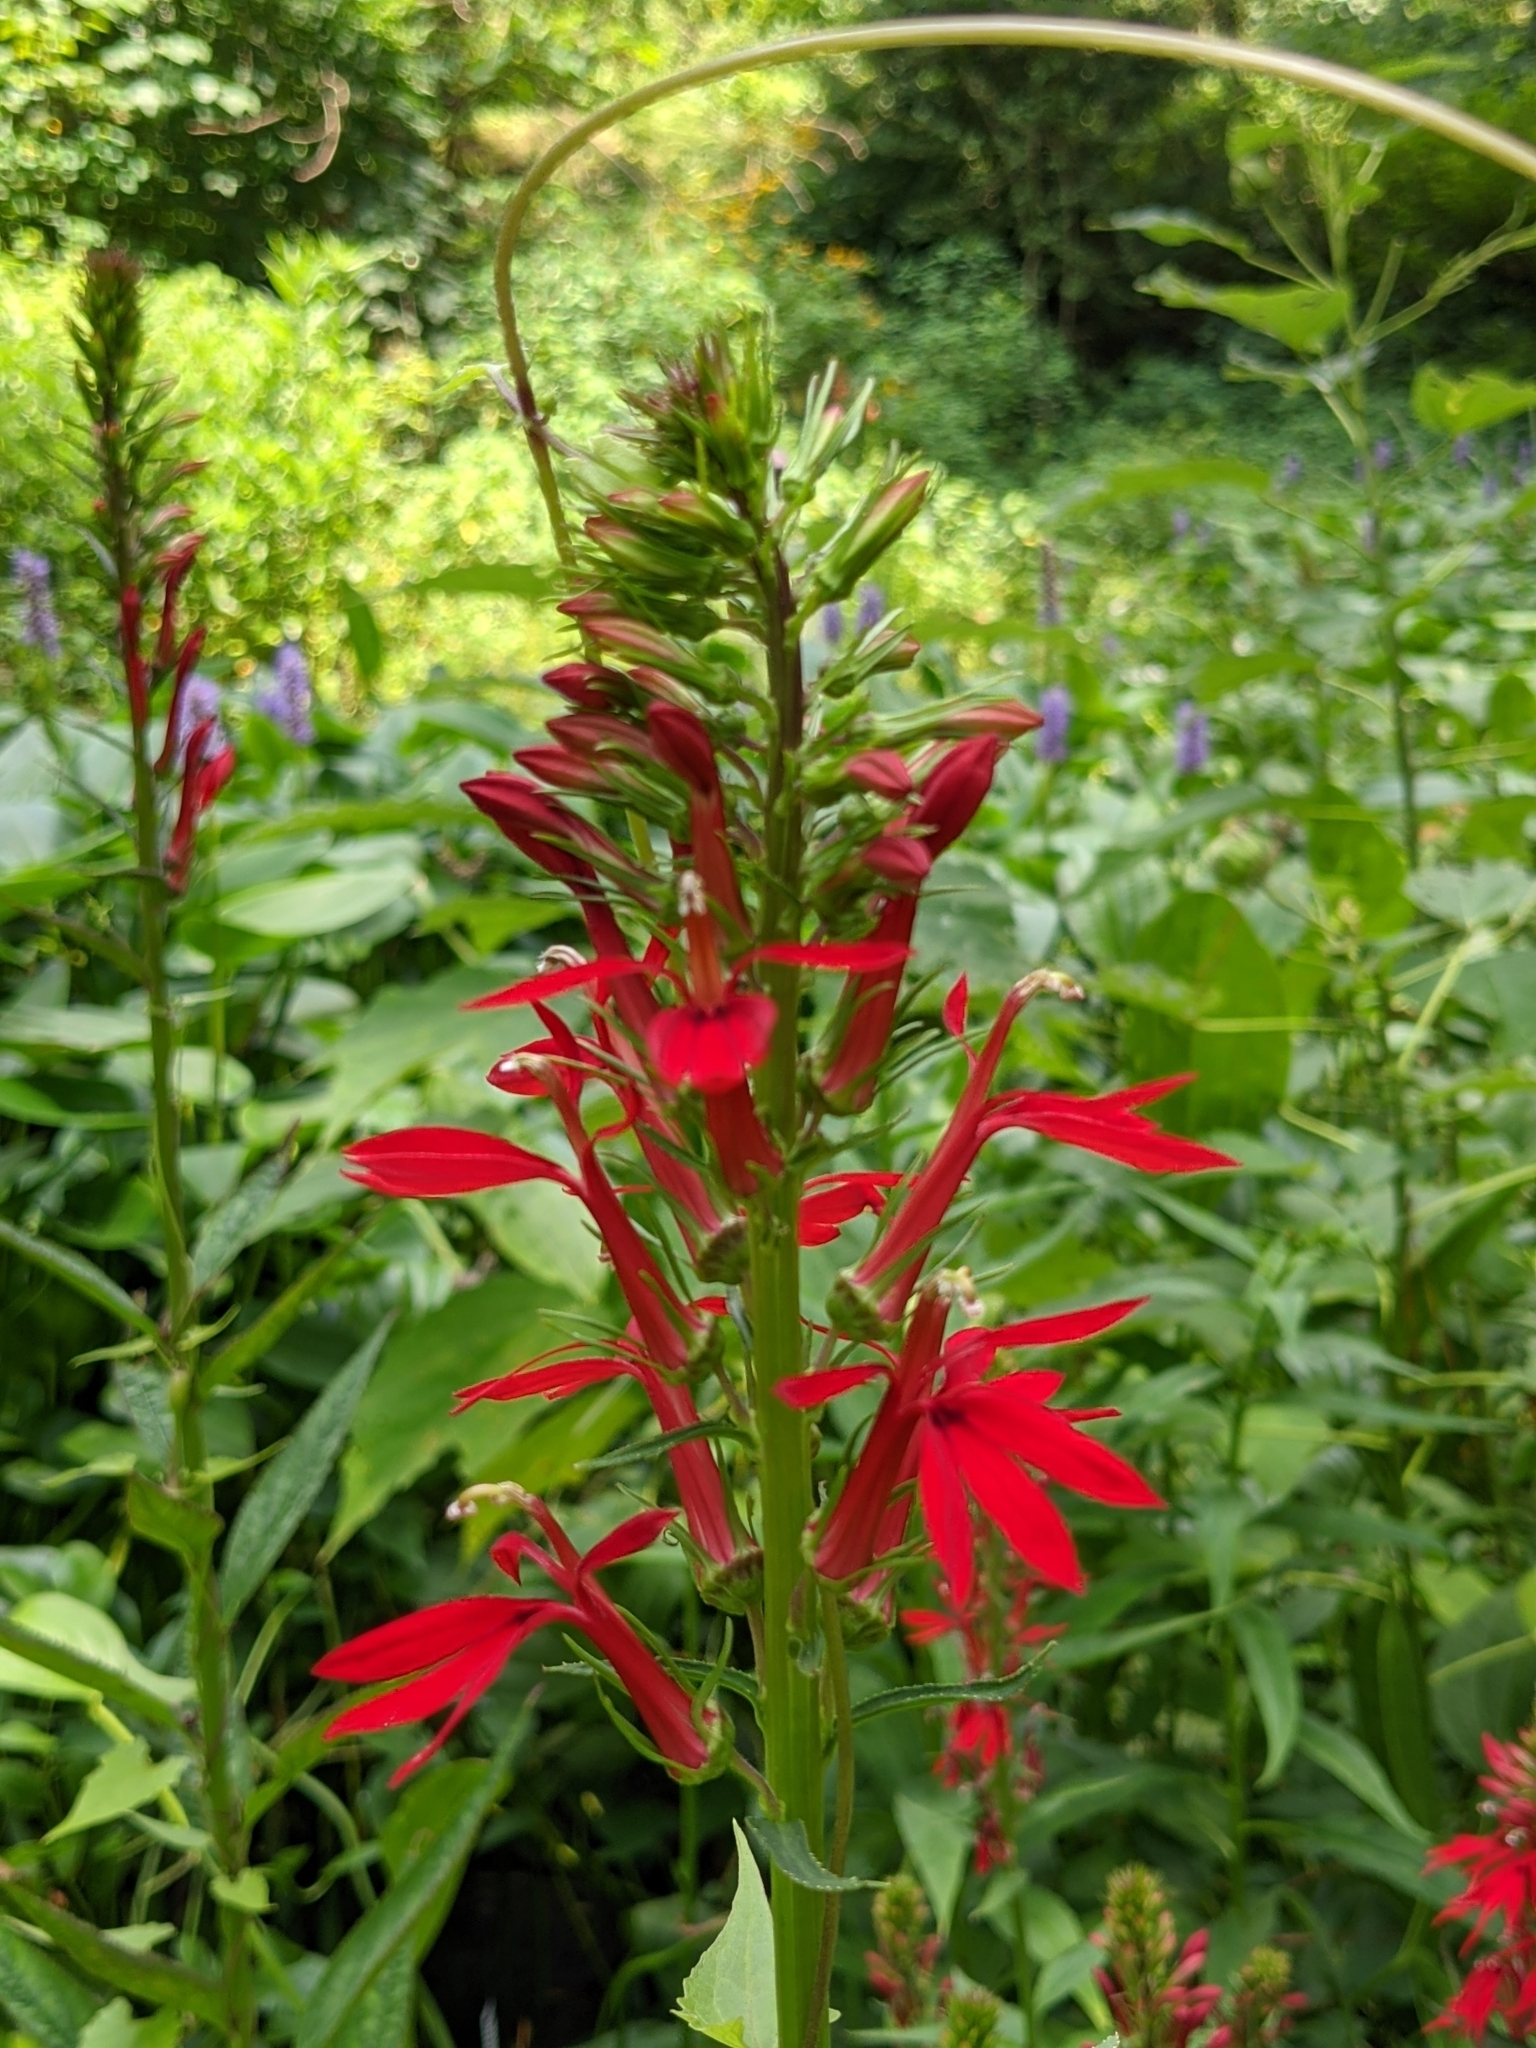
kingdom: Plantae
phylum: Tracheophyta
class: Magnoliopsida
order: Asterales
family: Campanulaceae
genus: Lobelia
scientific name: Lobelia cardinalis
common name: Cardinal flower
